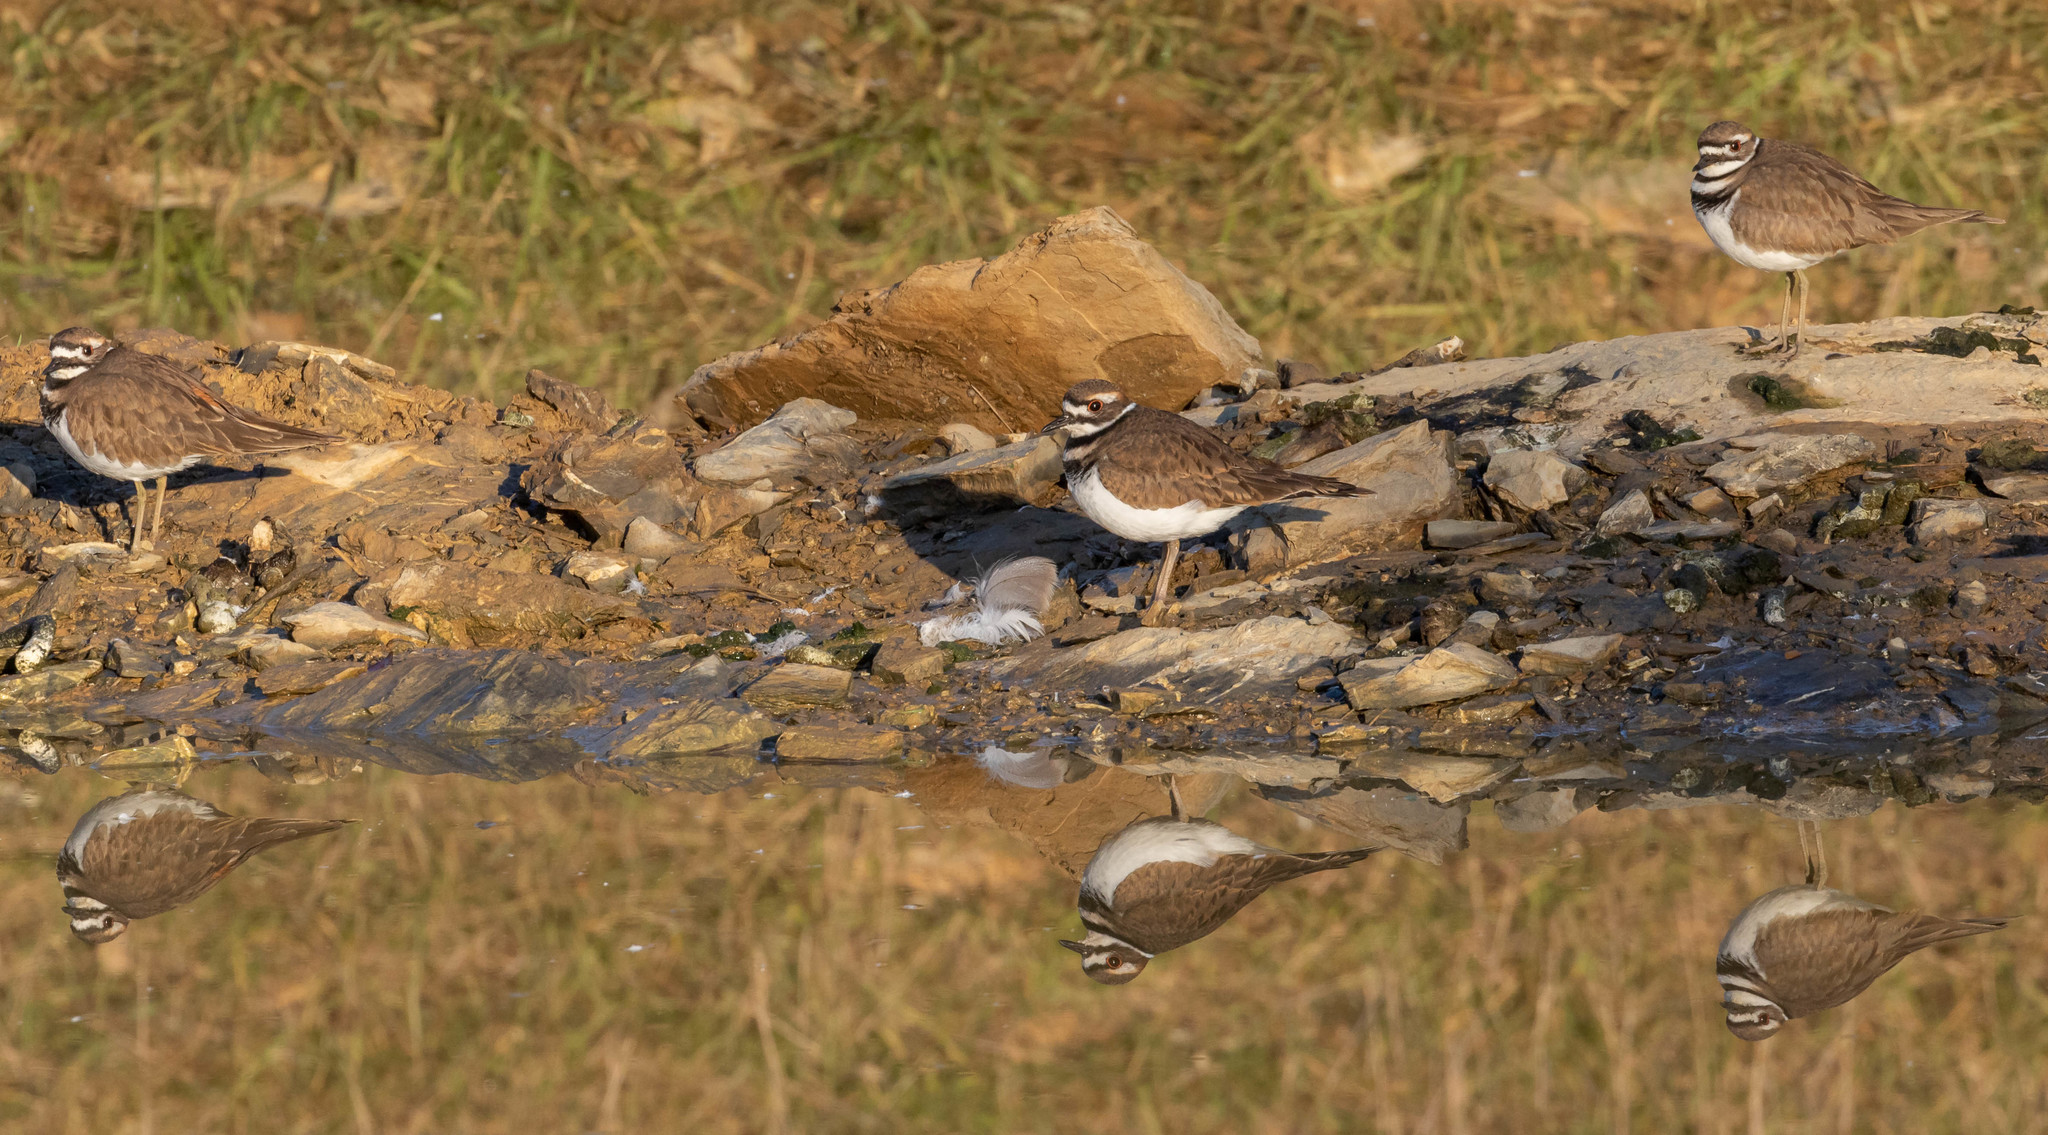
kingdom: Animalia
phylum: Chordata
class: Aves
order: Charadriiformes
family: Charadriidae
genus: Charadrius
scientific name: Charadrius vociferus
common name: Killdeer
